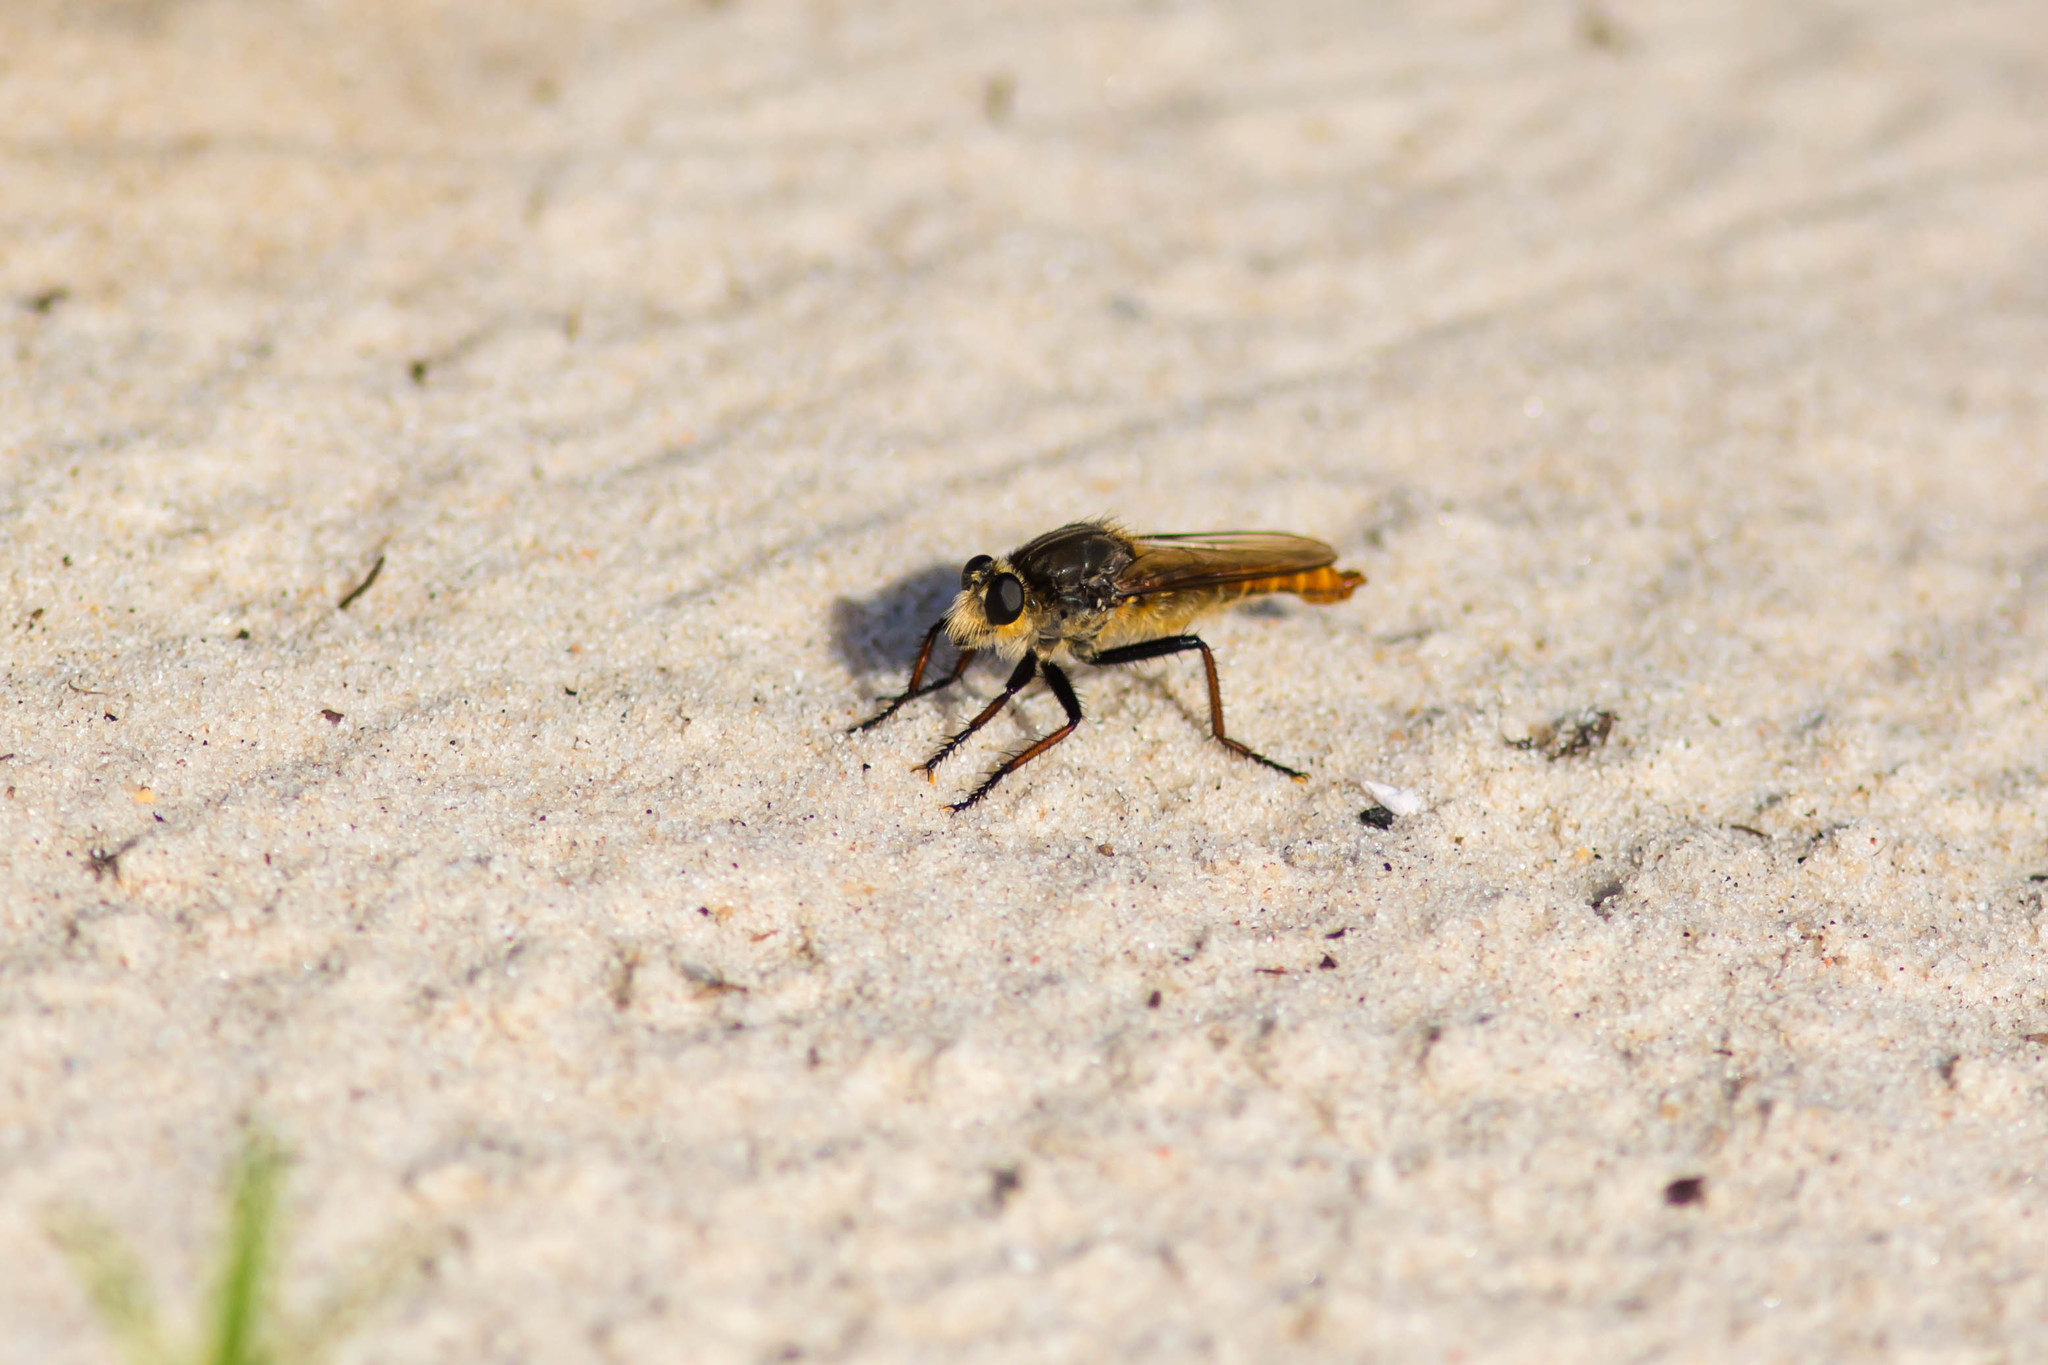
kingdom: Animalia
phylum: Arthropoda
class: Insecta
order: Diptera
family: Asilidae
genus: Proctacanthus
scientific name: Proctacanthus fulviventris
